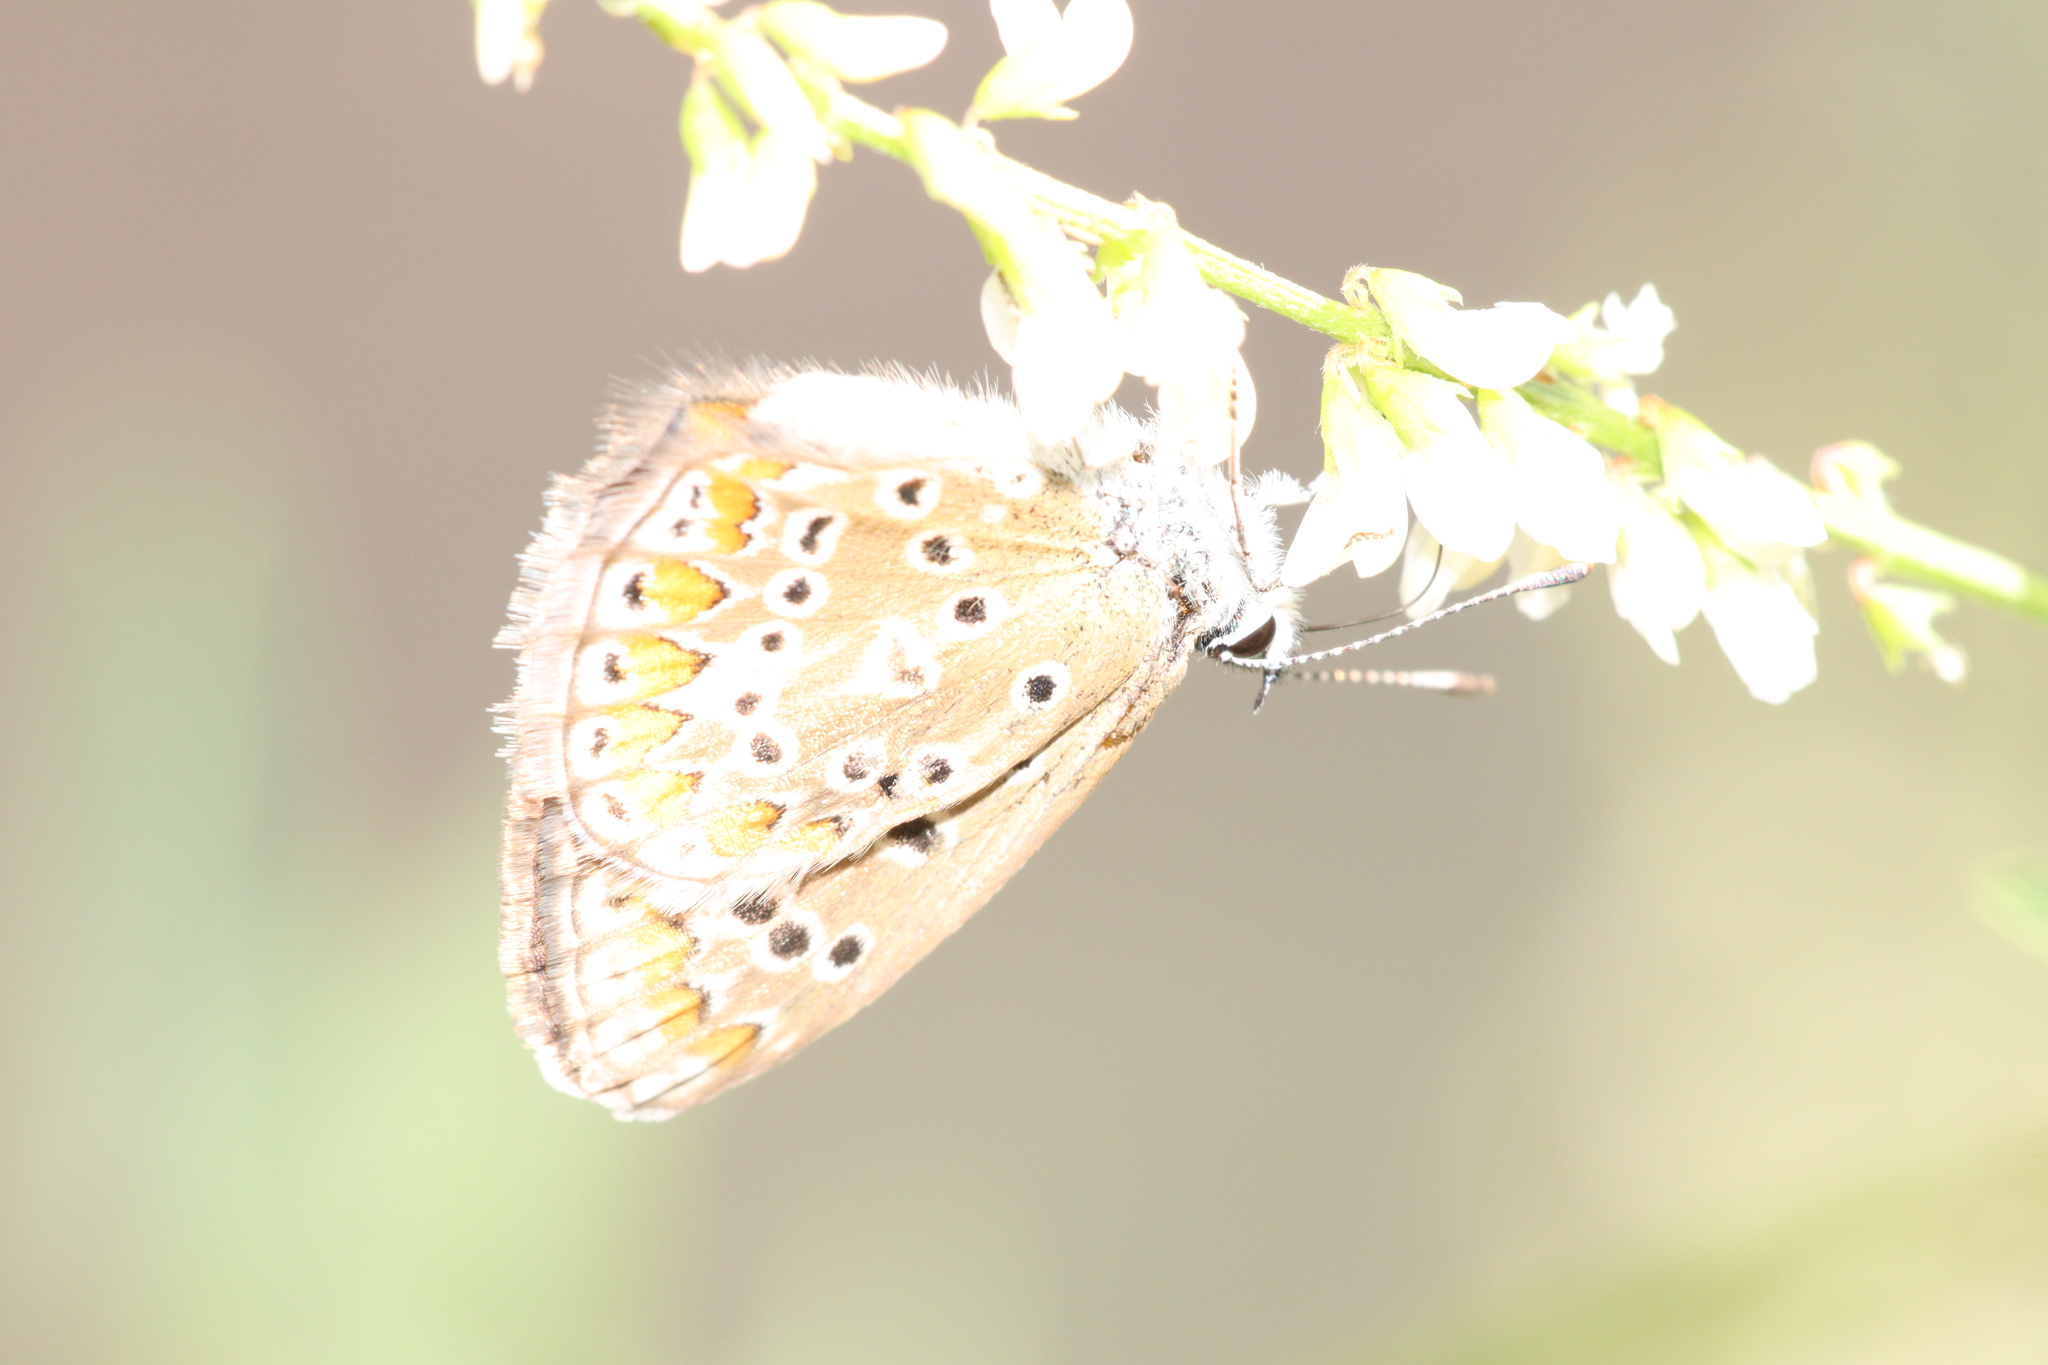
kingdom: Animalia
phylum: Arthropoda
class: Insecta
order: Lepidoptera
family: Lycaenidae
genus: Polyommatus
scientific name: Polyommatus icarus
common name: Common blue
